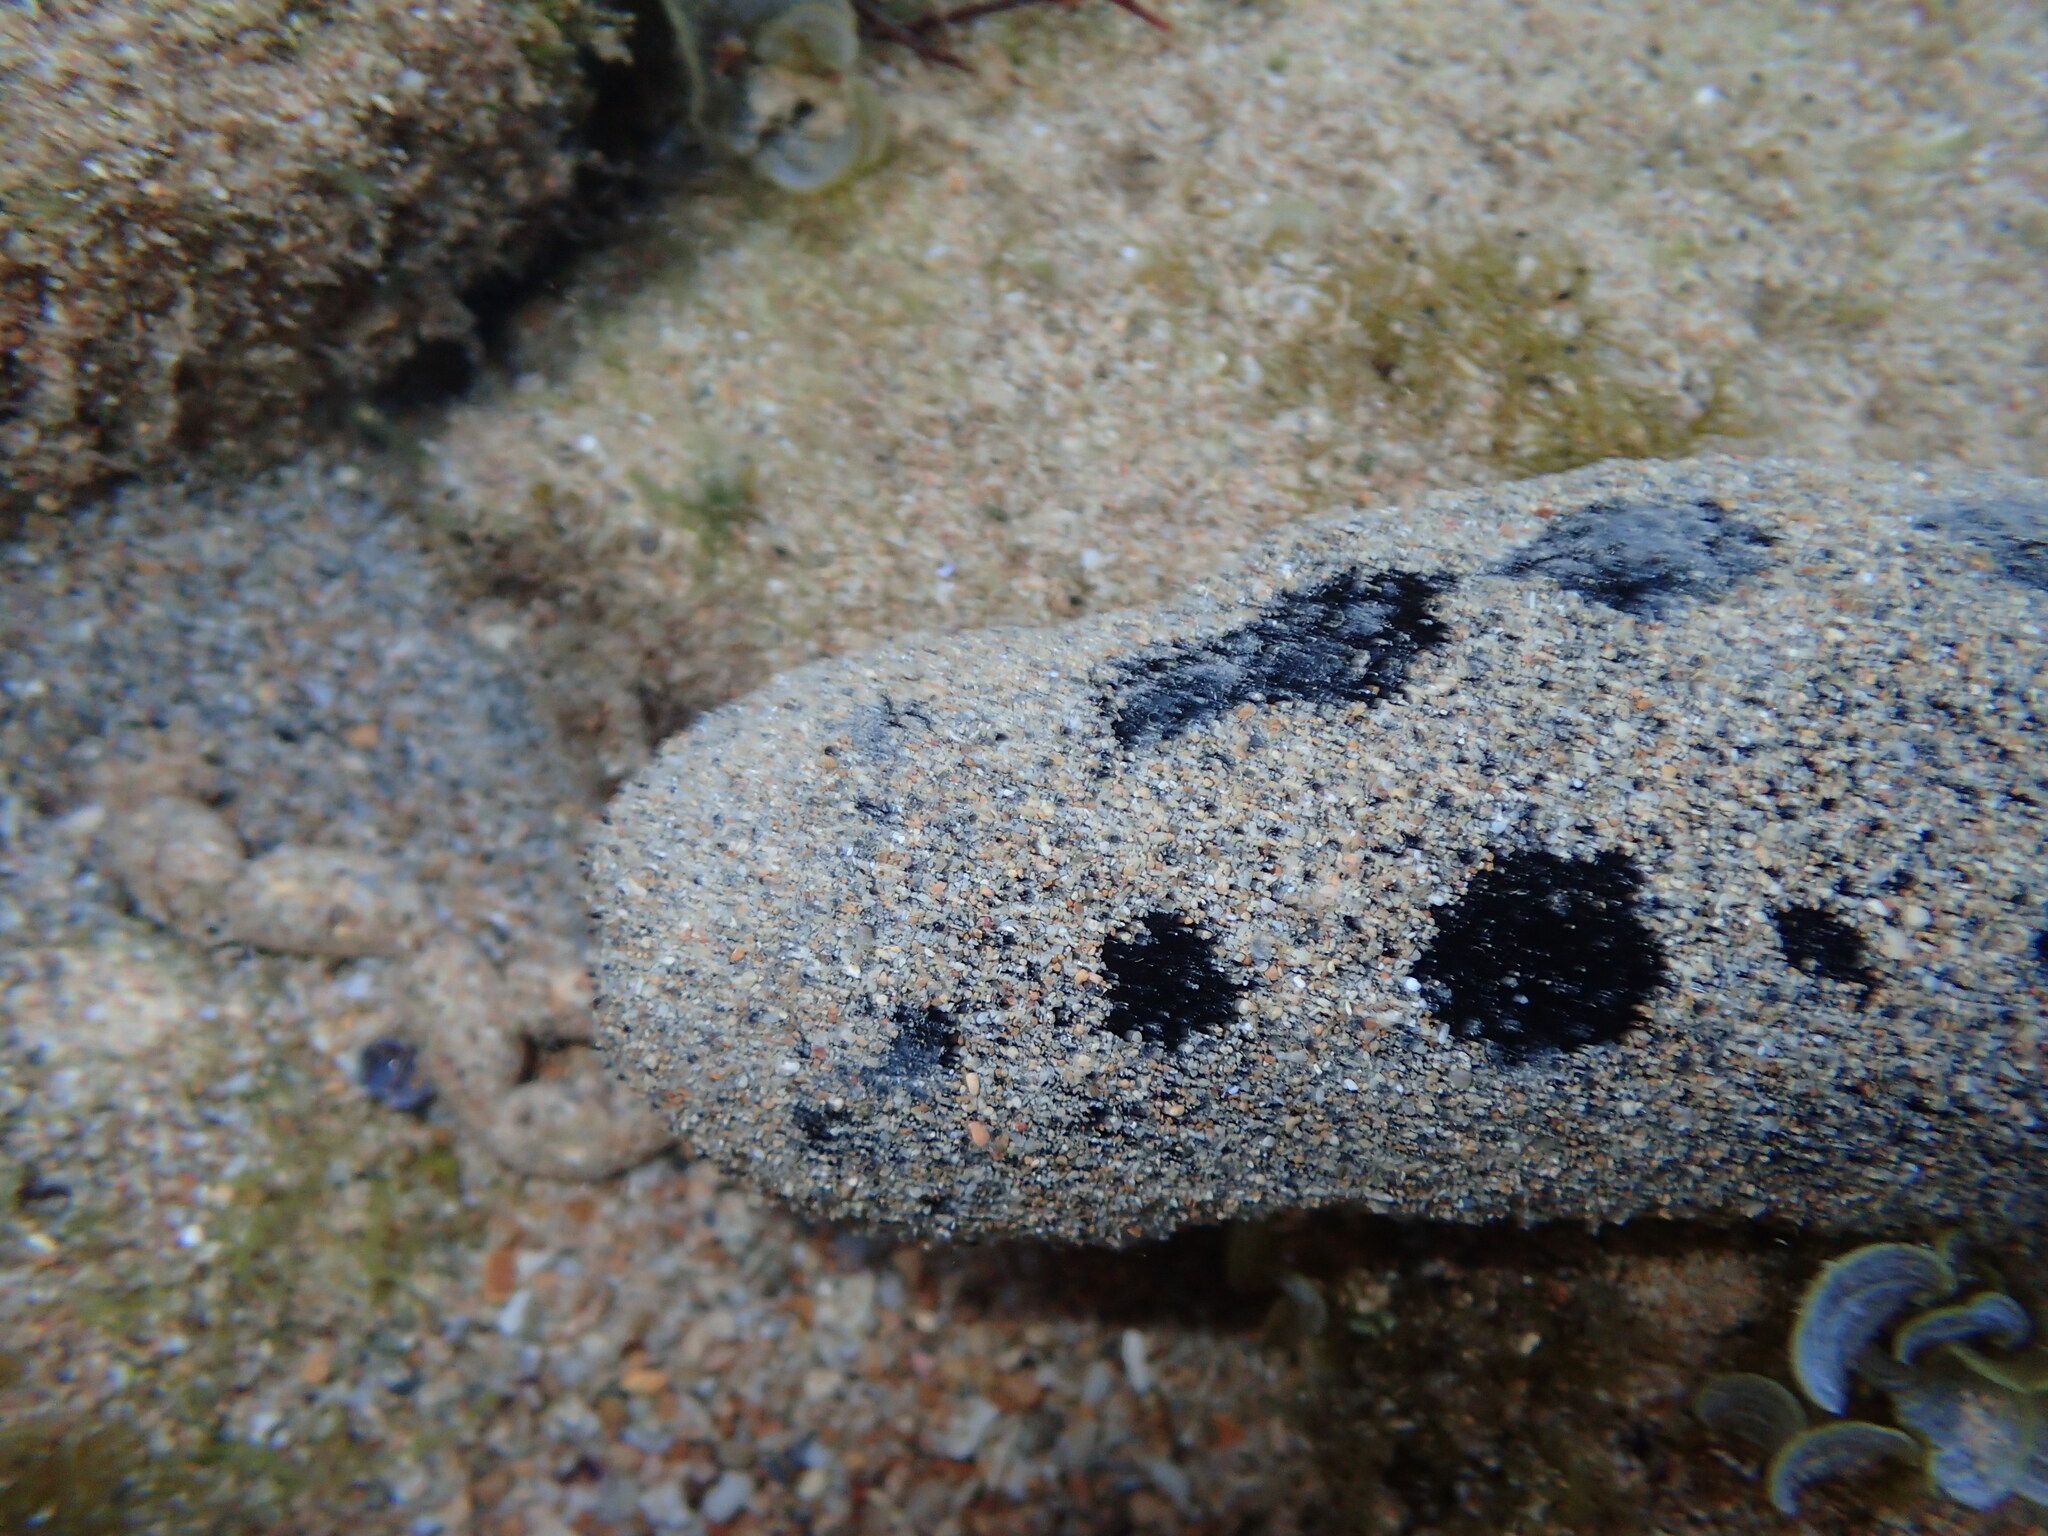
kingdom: Animalia
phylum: Echinodermata
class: Holothuroidea
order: Holothuriida
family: Holothuriidae
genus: Holothuria
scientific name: Holothuria atra
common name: Lollyfish
